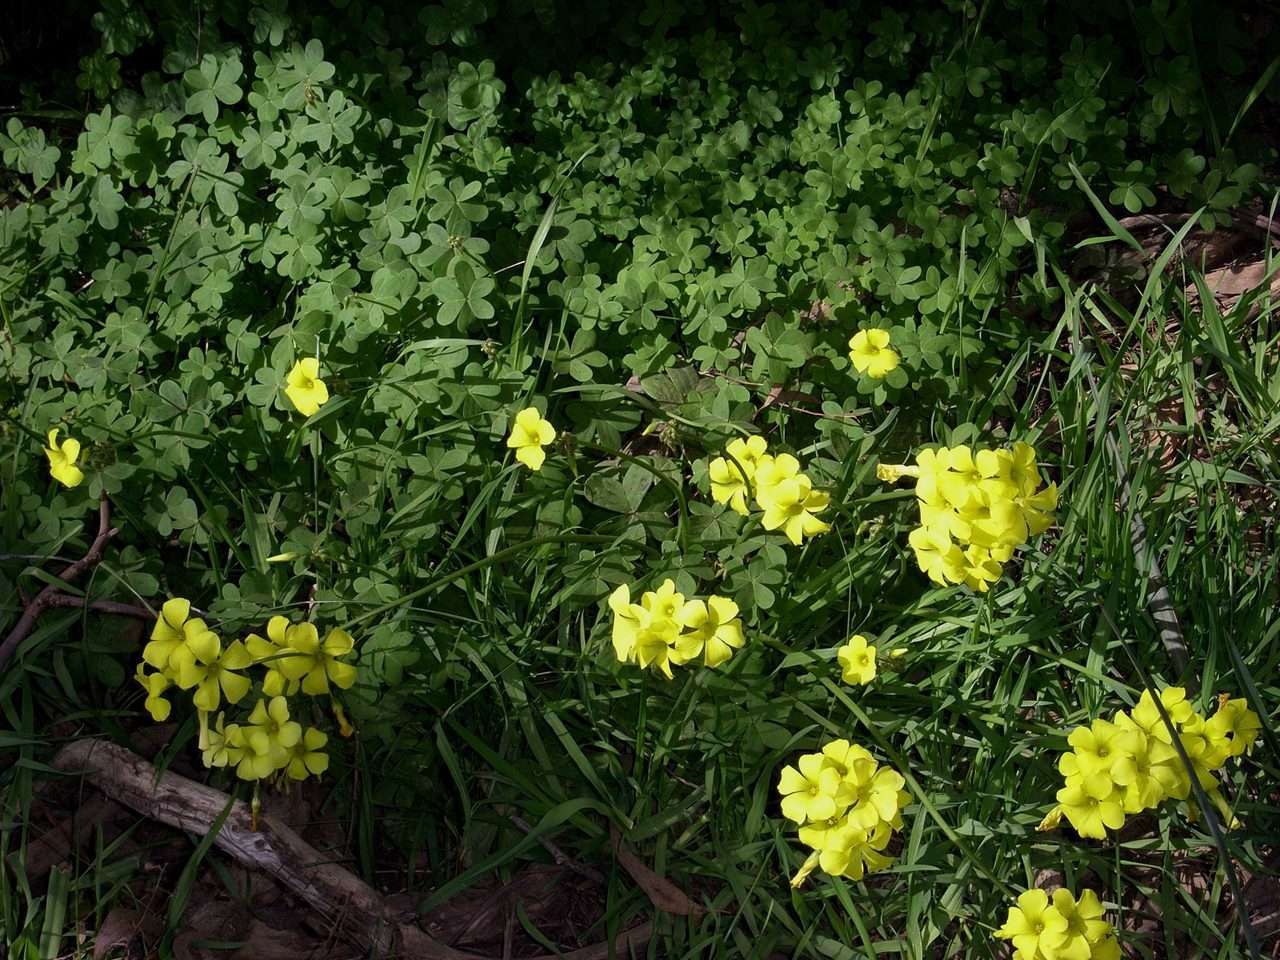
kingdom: Plantae
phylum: Tracheophyta
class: Magnoliopsida
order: Oxalidales
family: Oxalidaceae
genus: Oxalis
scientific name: Oxalis pes-caprae
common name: Bermuda-buttercup
